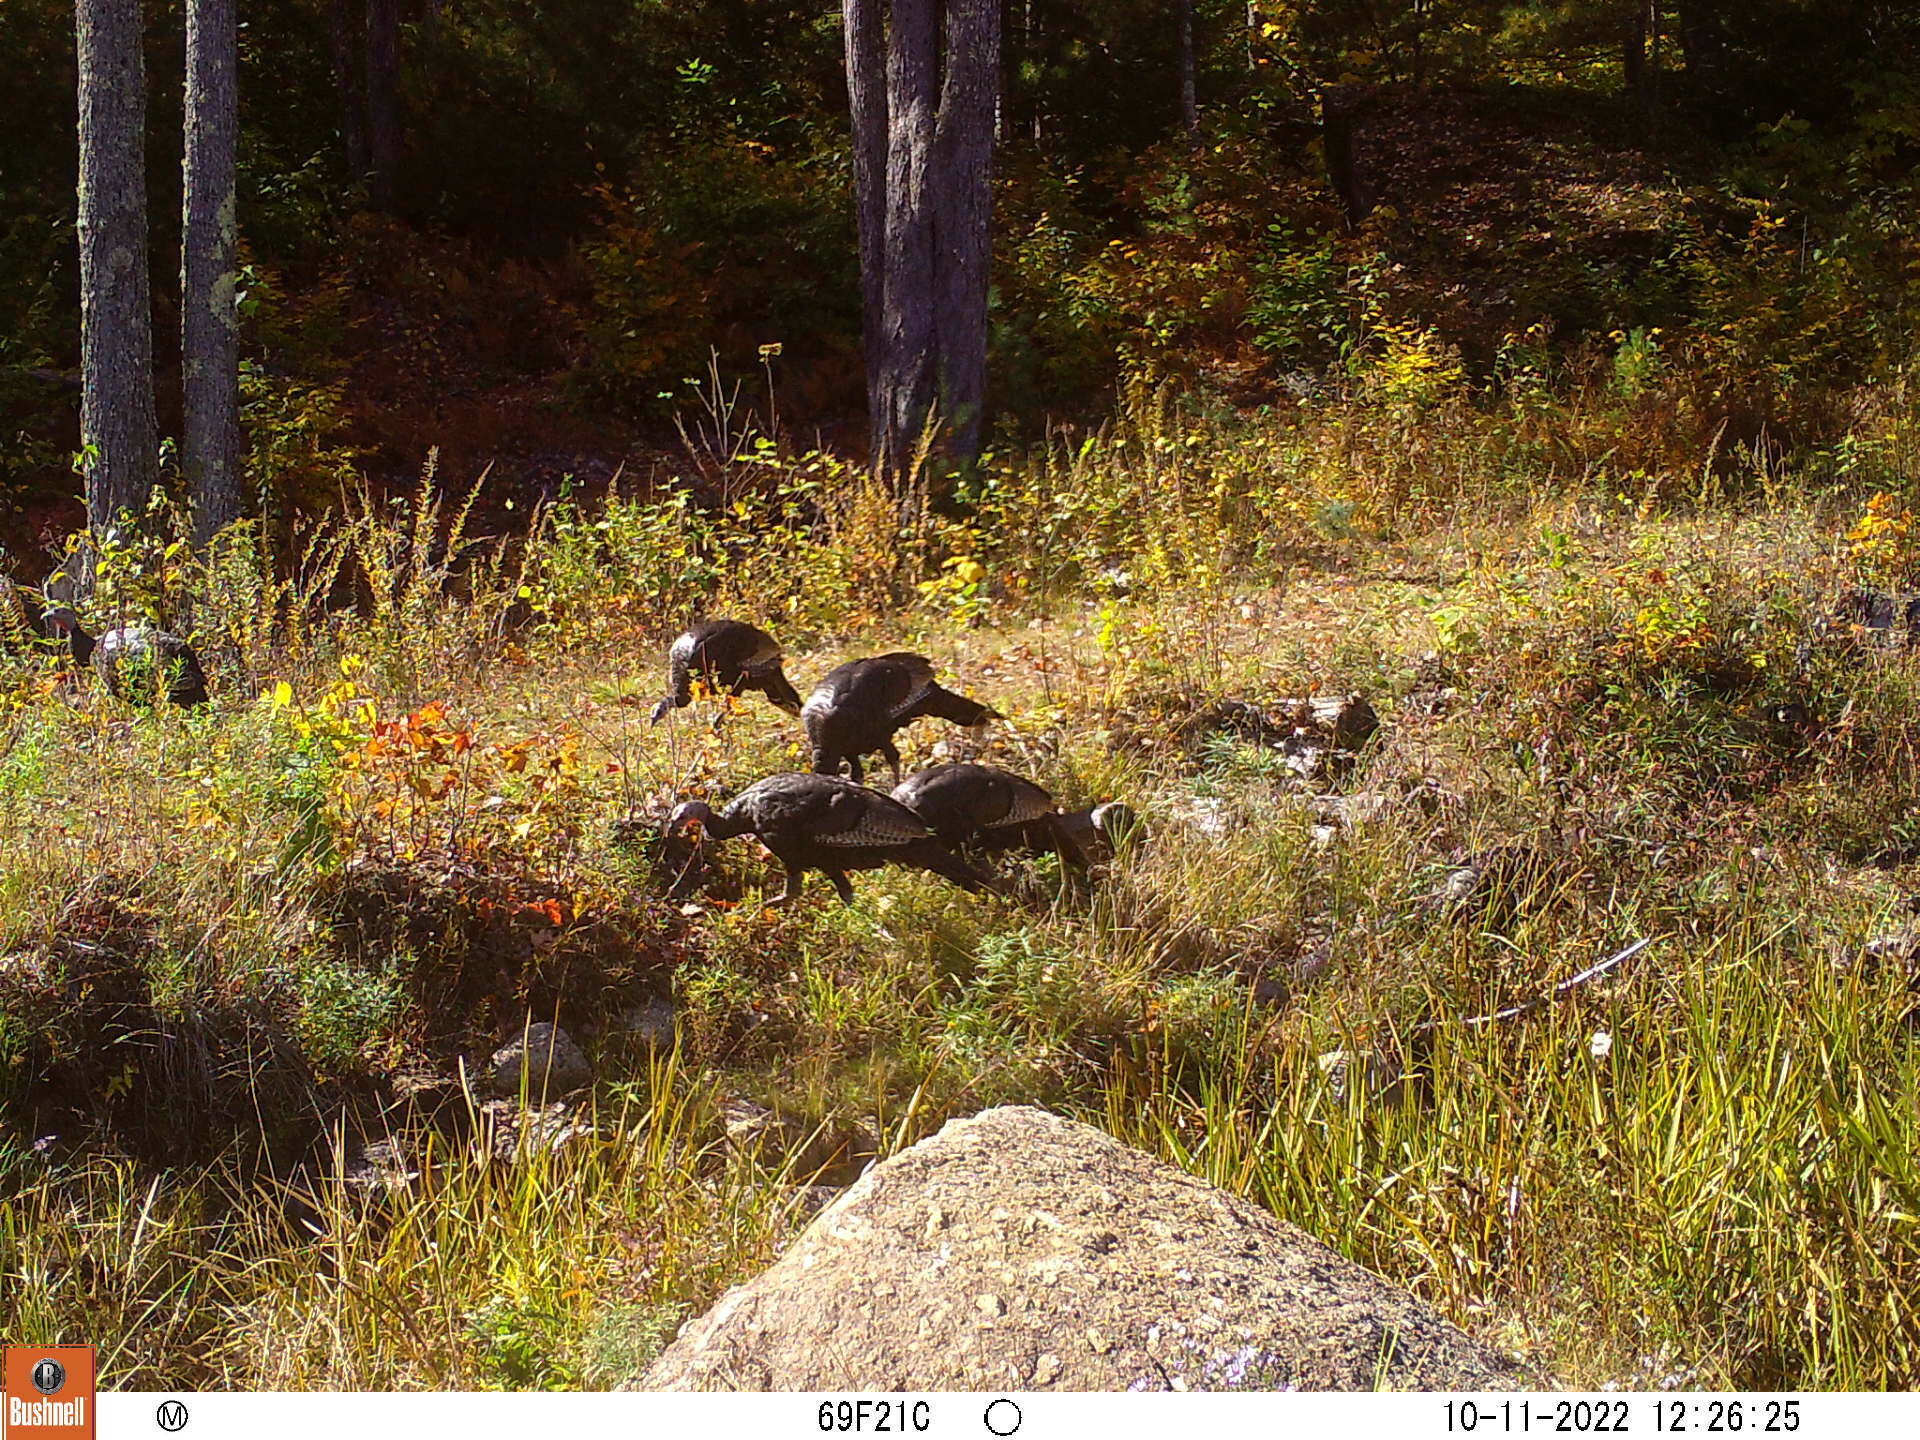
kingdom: Animalia
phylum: Chordata
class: Aves
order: Galliformes
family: Phasianidae
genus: Meleagris
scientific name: Meleagris gallopavo
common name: Wild turkey
